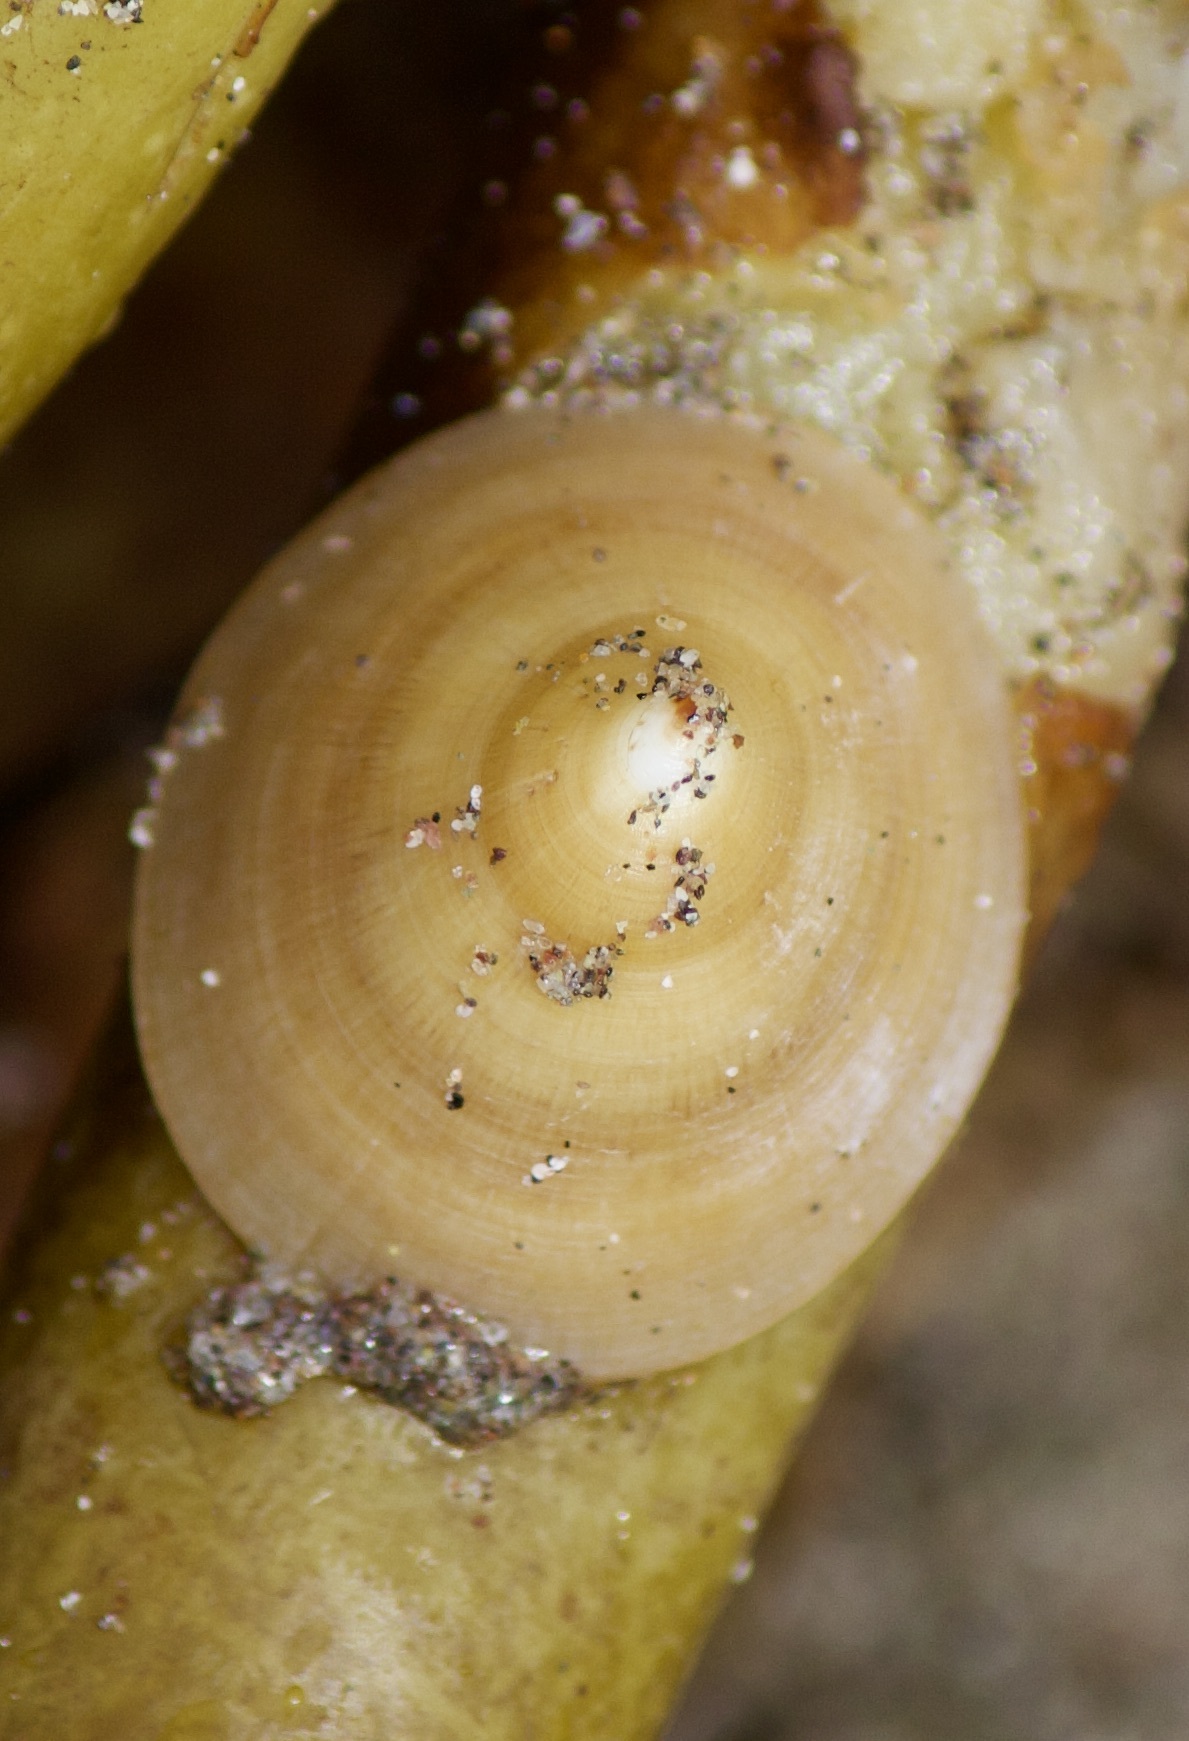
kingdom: Animalia
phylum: Mollusca
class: Gastropoda
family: Lottiidae
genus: Scurria
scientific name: Scurria scurra
